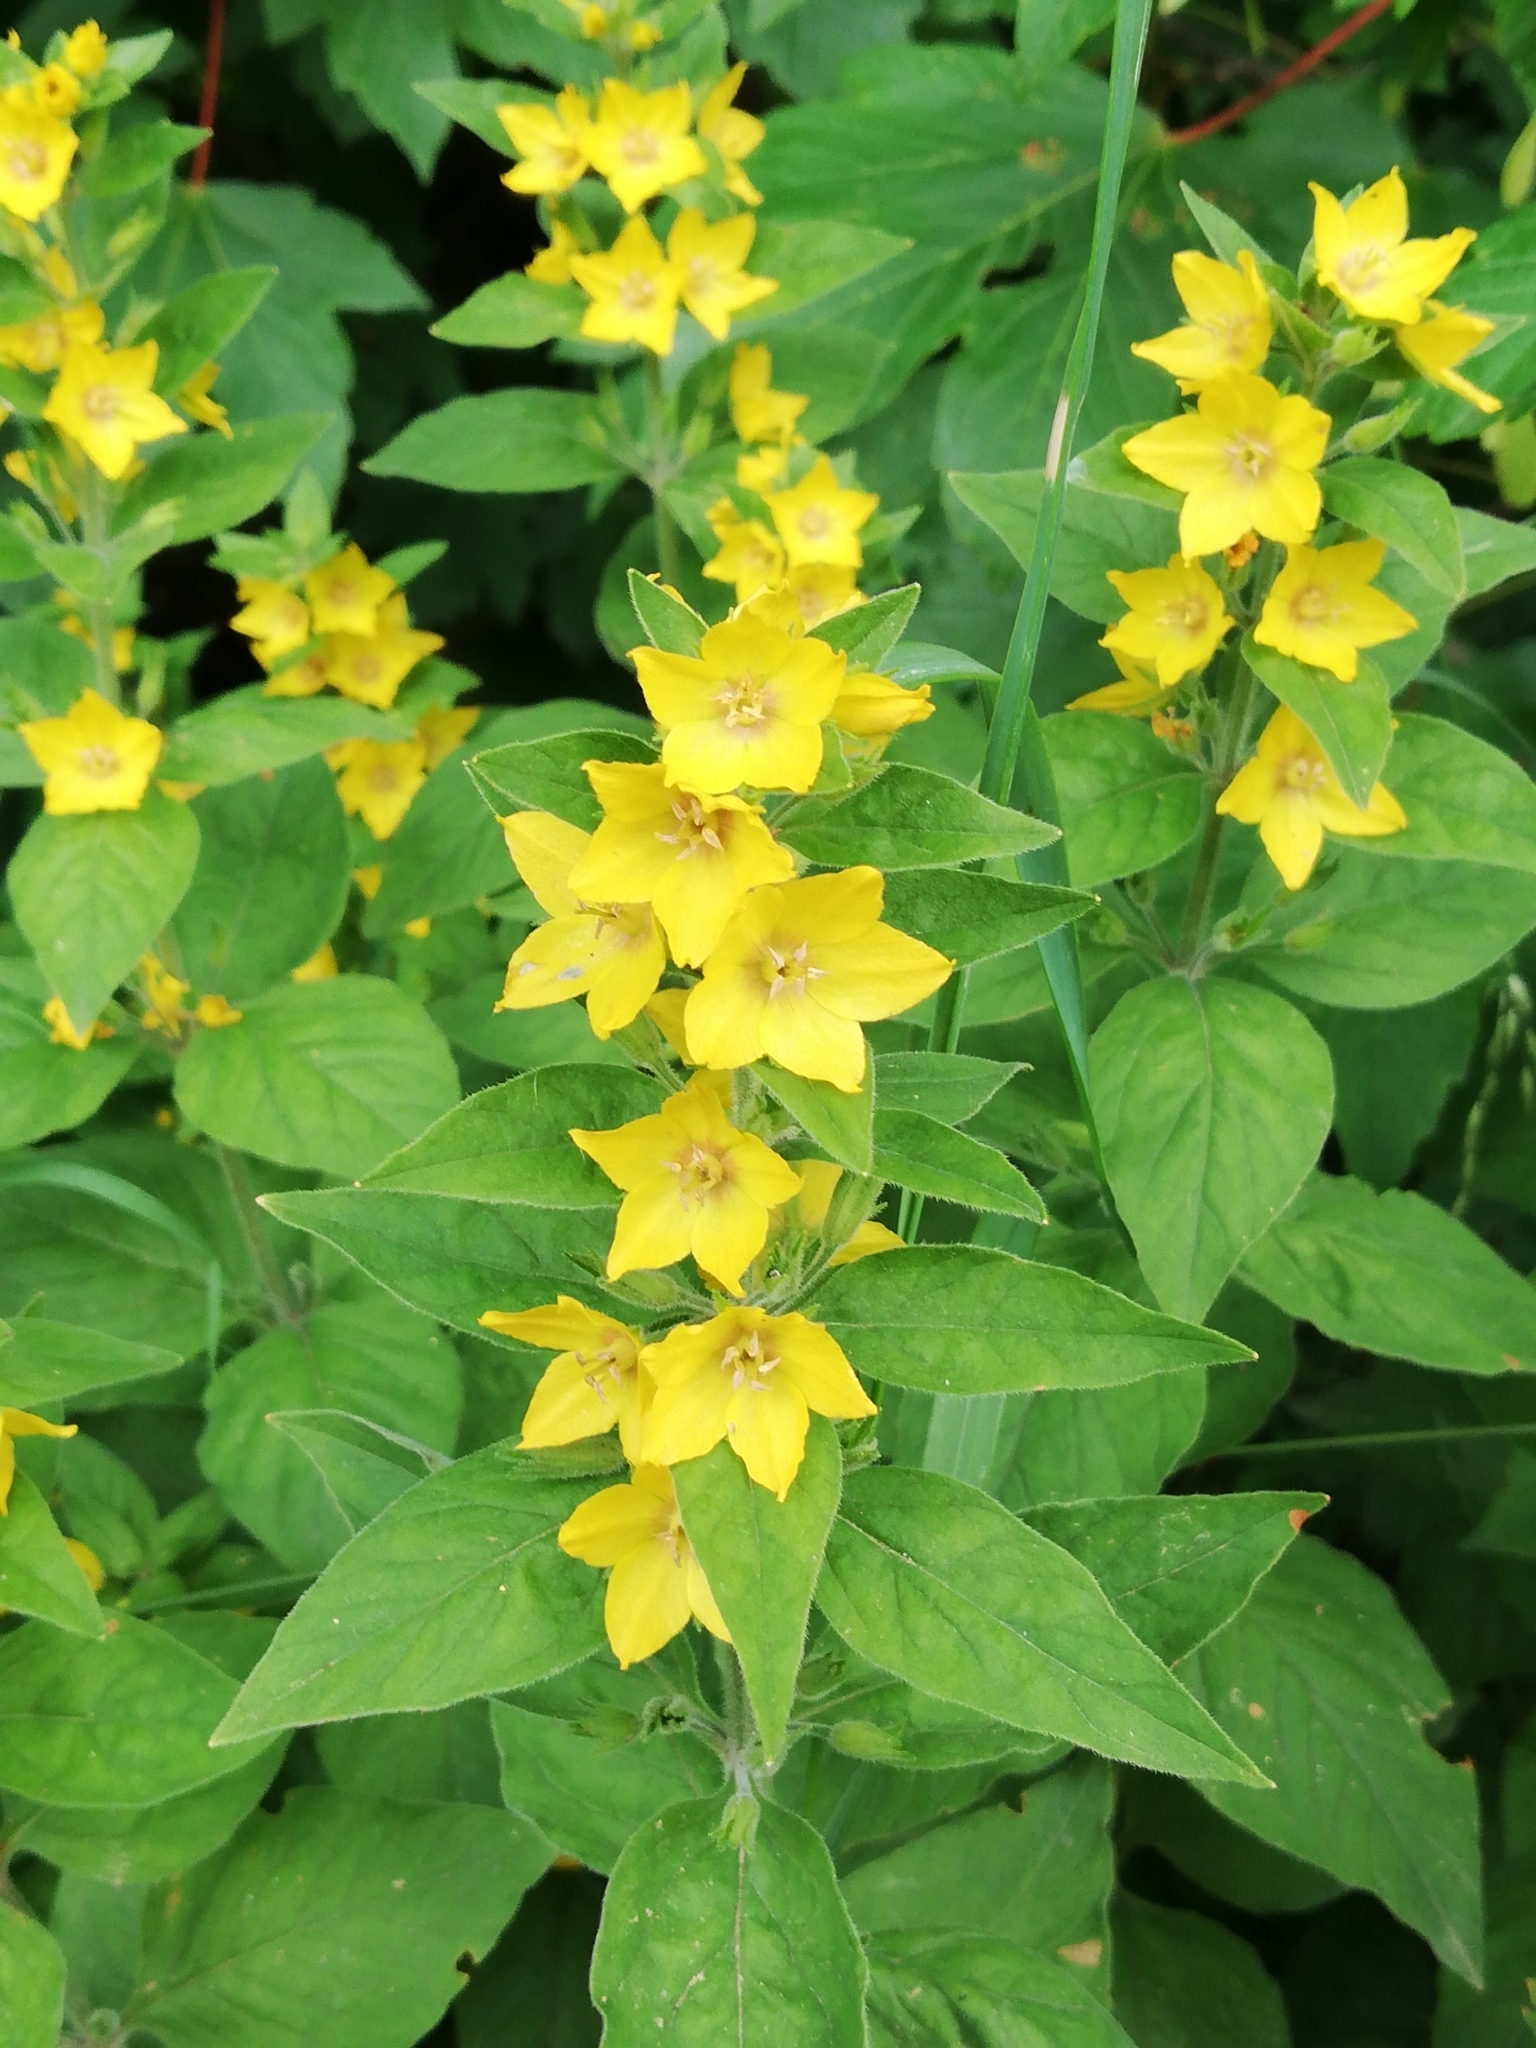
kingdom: Plantae
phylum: Tracheophyta
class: Magnoliopsida
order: Ericales
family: Primulaceae
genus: Lysimachia
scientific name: Lysimachia punctata
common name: Dotted loosestrife
